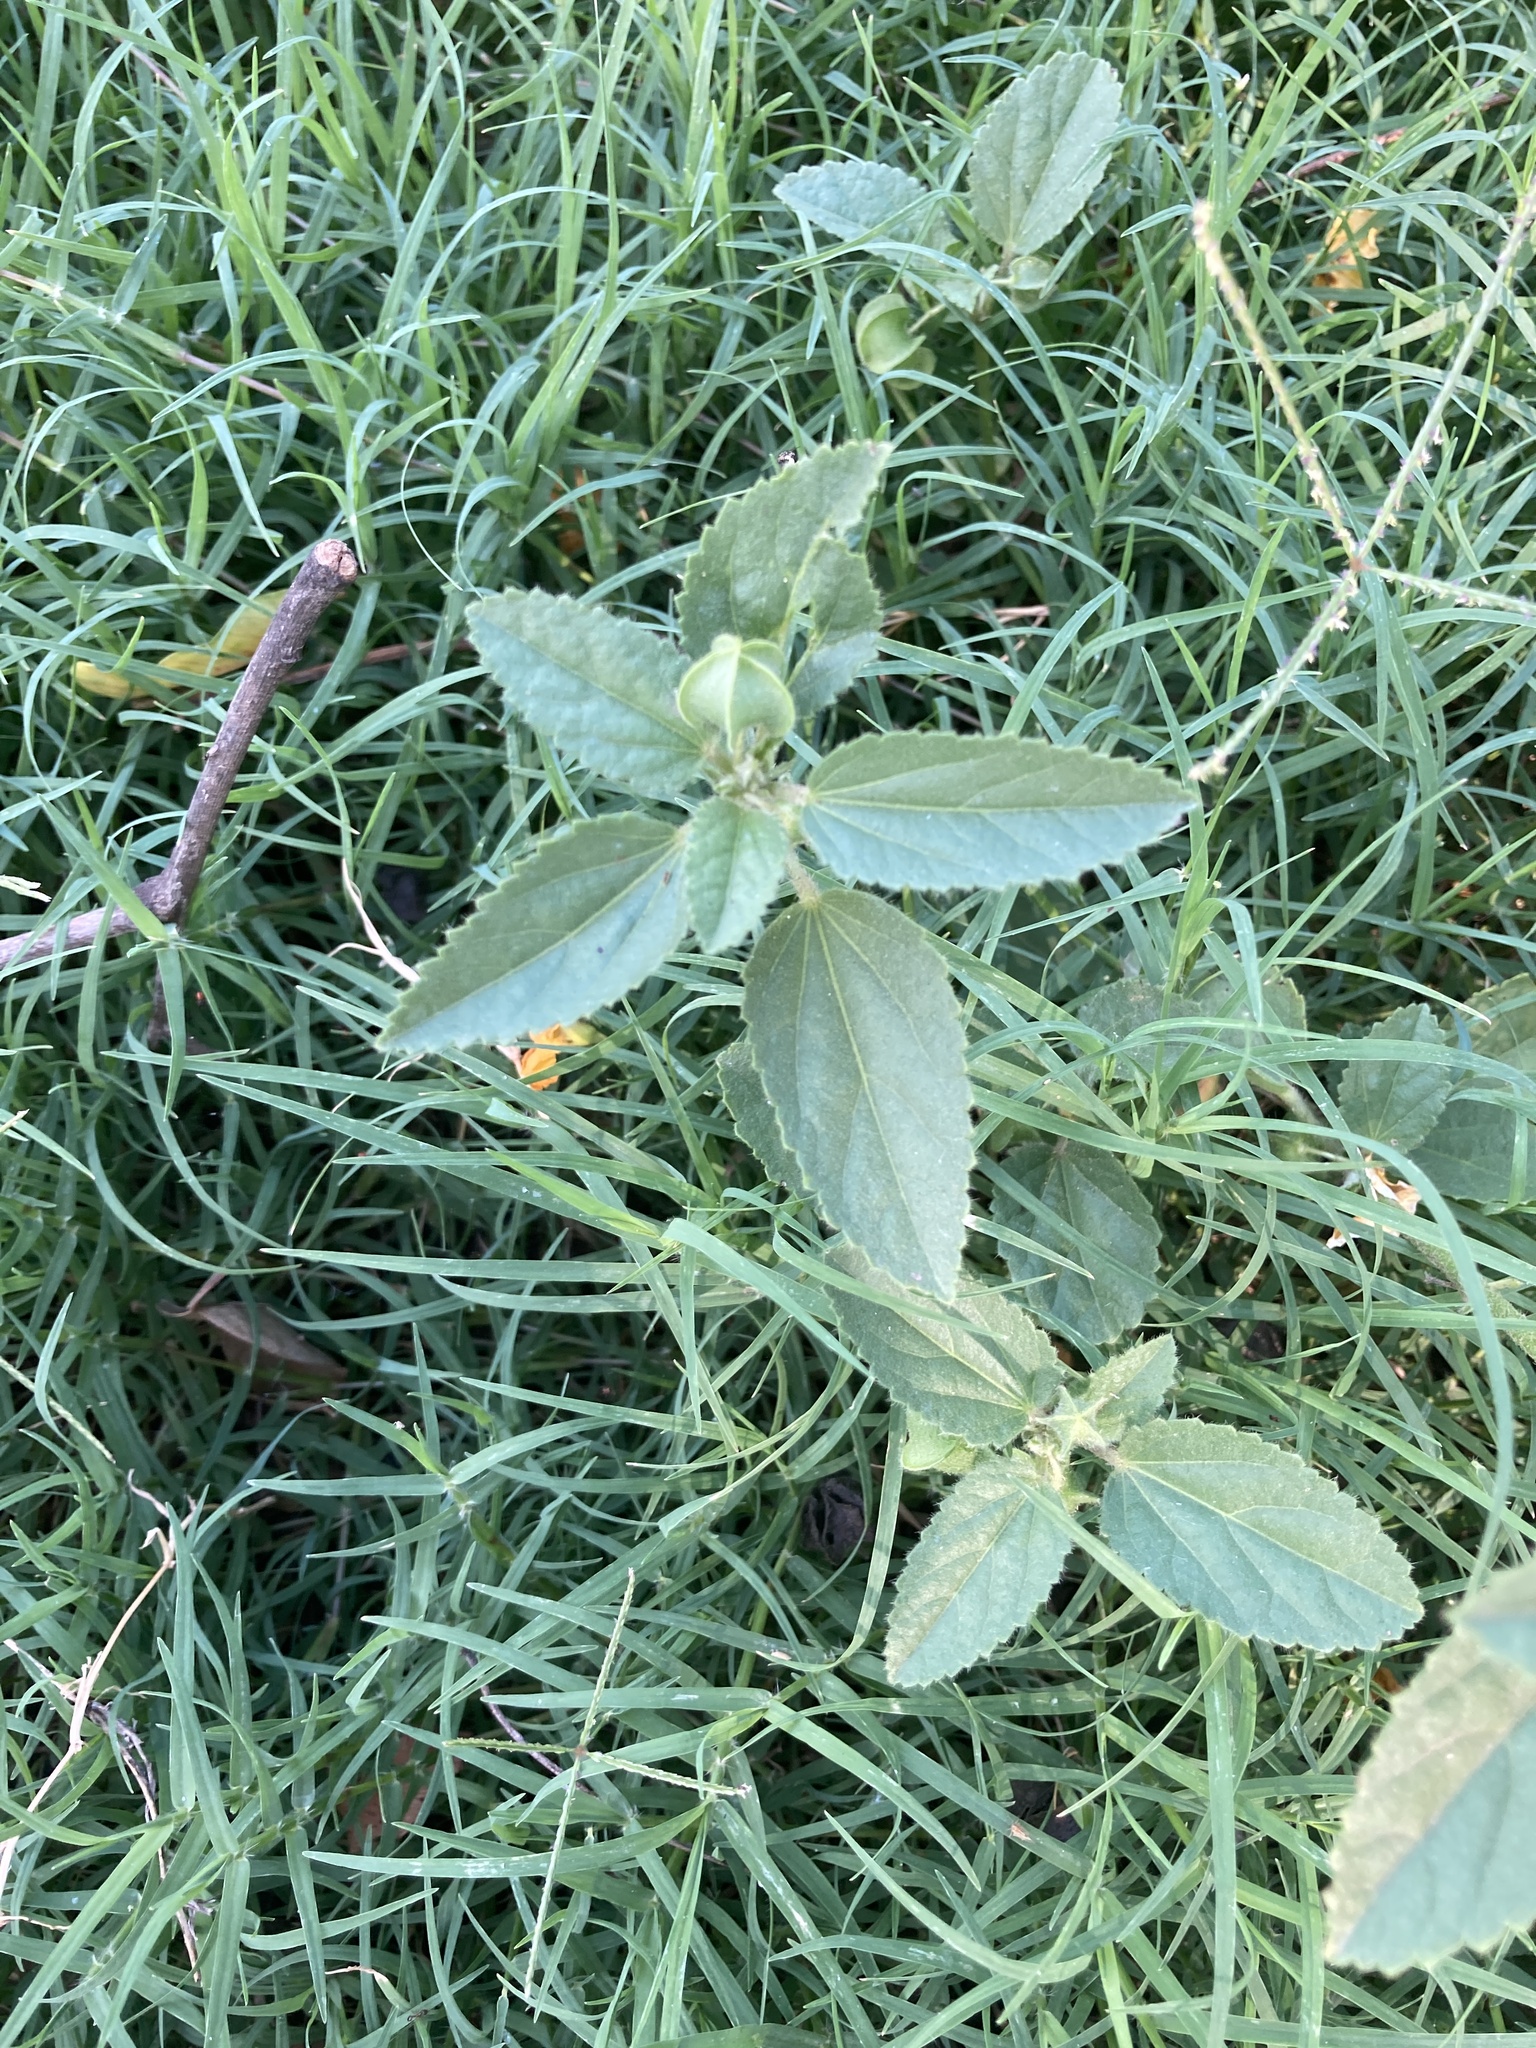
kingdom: Plantae
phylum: Tracheophyta
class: Magnoliopsida
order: Malvales
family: Malvaceae
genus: Rhynchosida
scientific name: Rhynchosida physocalyx
